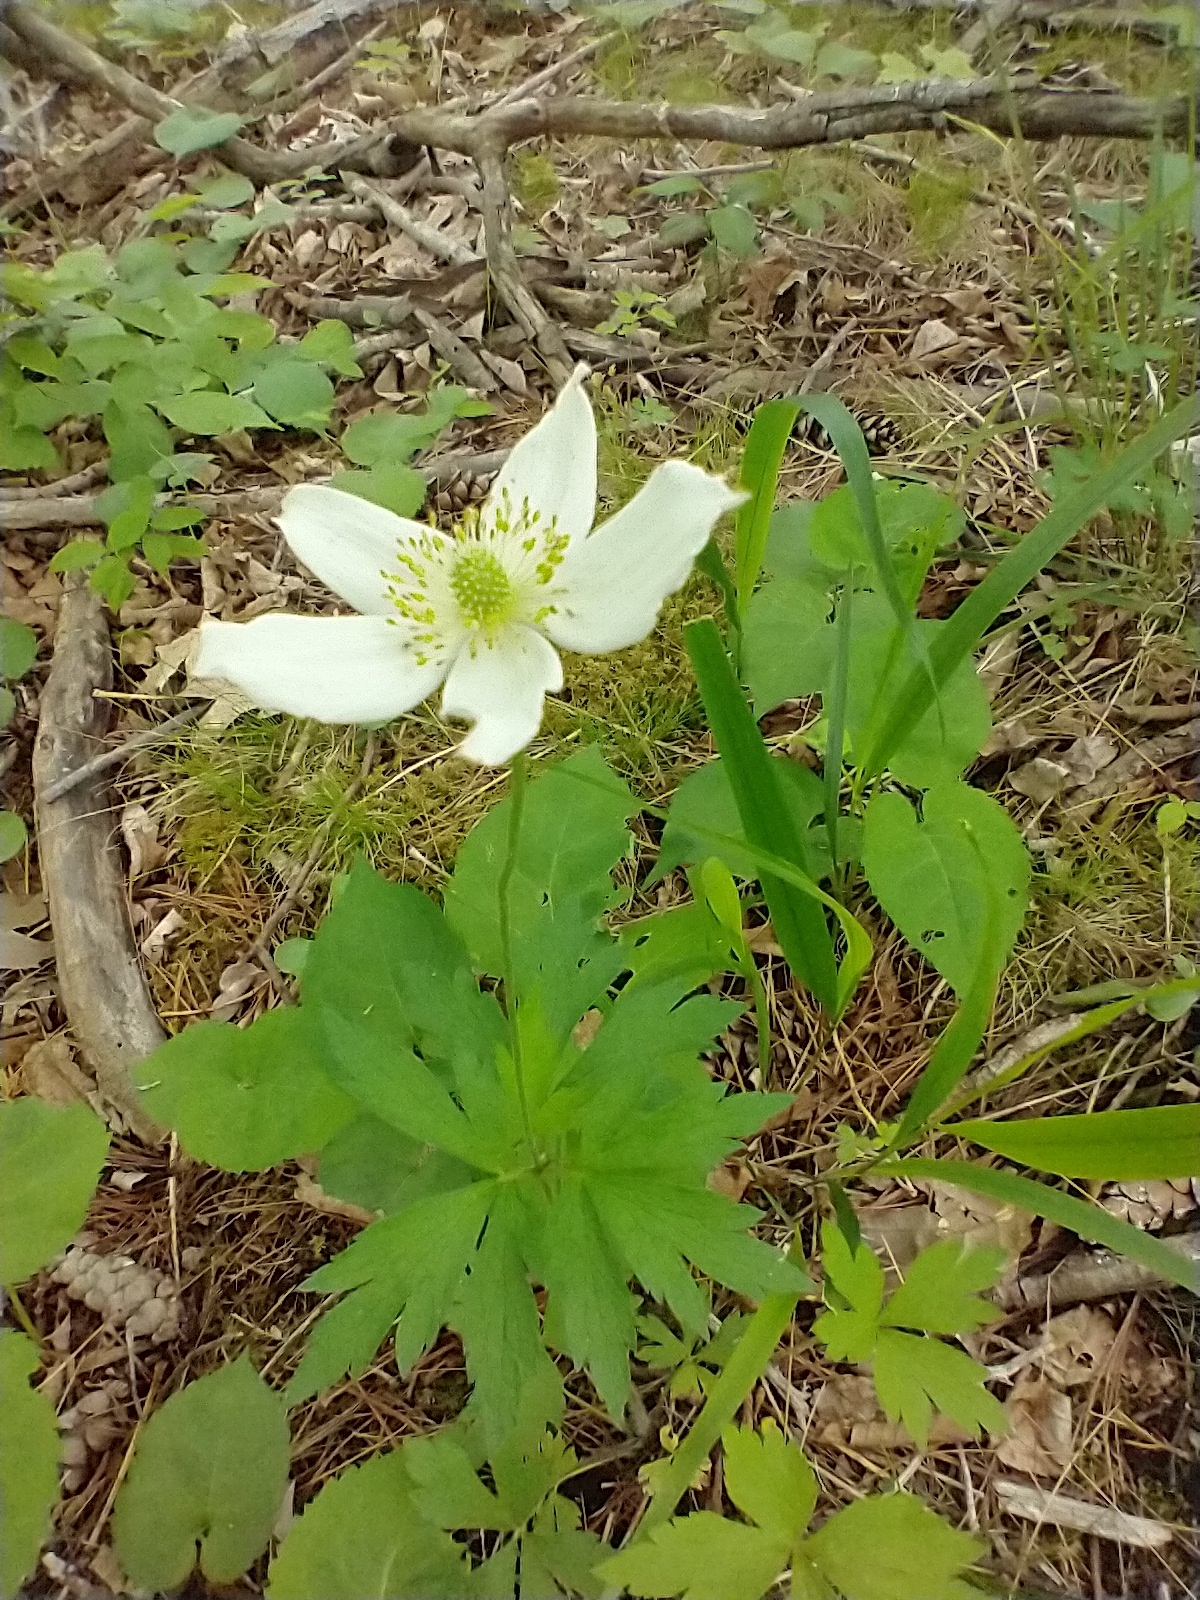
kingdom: Plantae
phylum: Tracheophyta
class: Magnoliopsida
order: Ranunculales
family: Ranunculaceae
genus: Anemone
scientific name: Anemone virginiana
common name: Tall anemone
